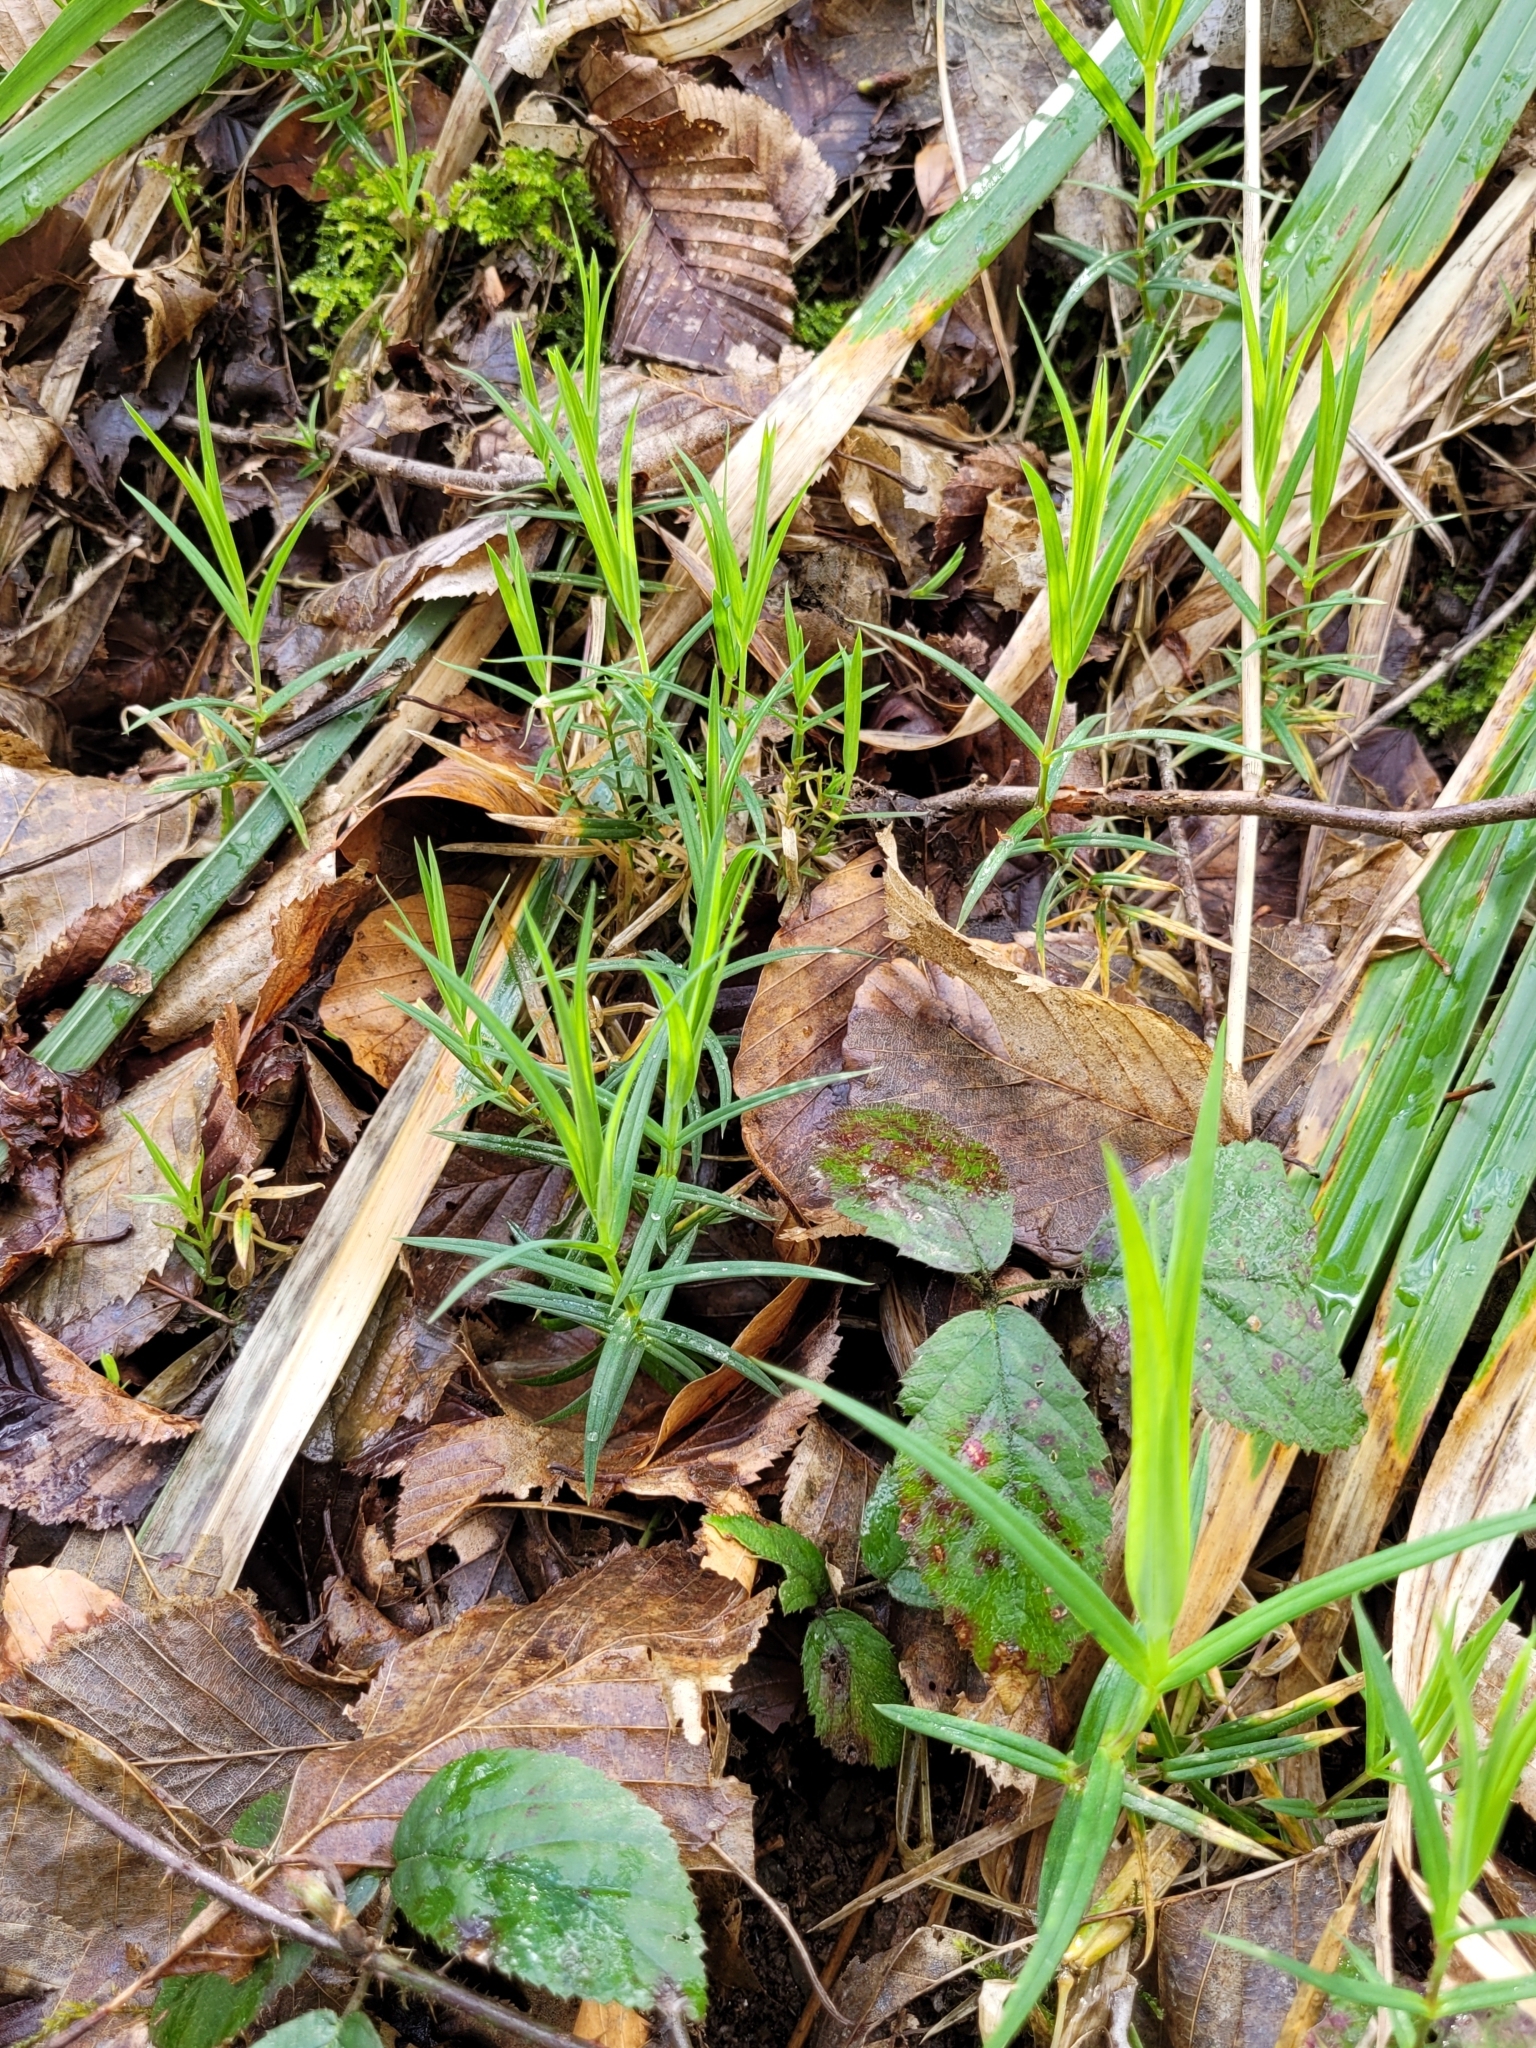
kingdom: Plantae
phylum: Tracheophyta
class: Magnoliopsida
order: Caryophyllales
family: Caryophyllaceae
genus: Rabelera
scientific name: Rabelera holostea
